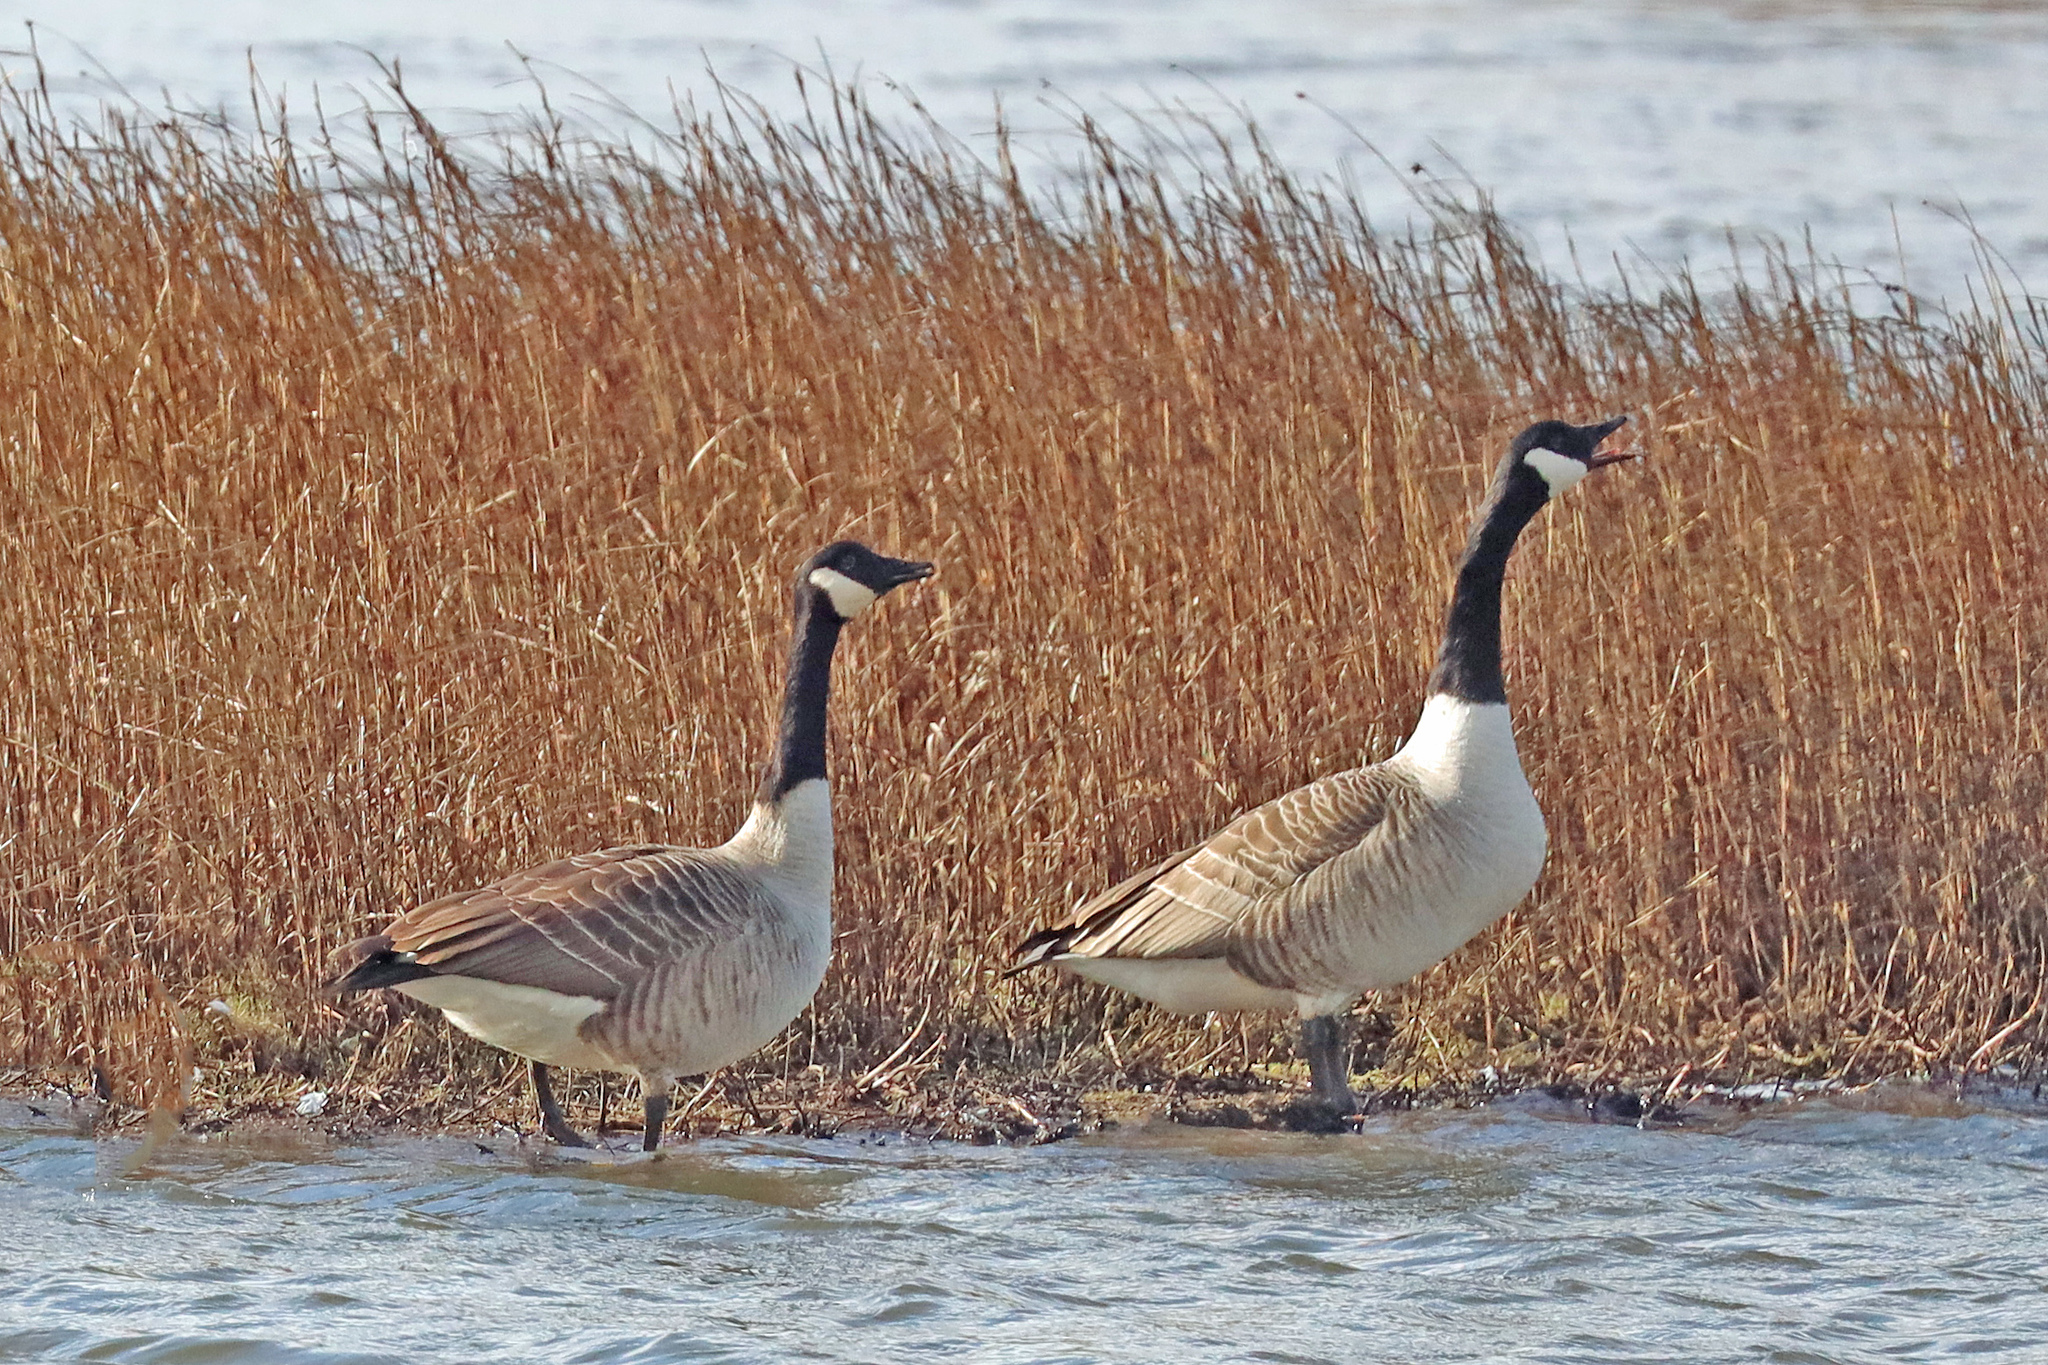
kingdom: Animalia
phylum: Chordata
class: Aves
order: Anseriformes
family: Anatidae
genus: Branta
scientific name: Branta canadensis
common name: Canada goose
